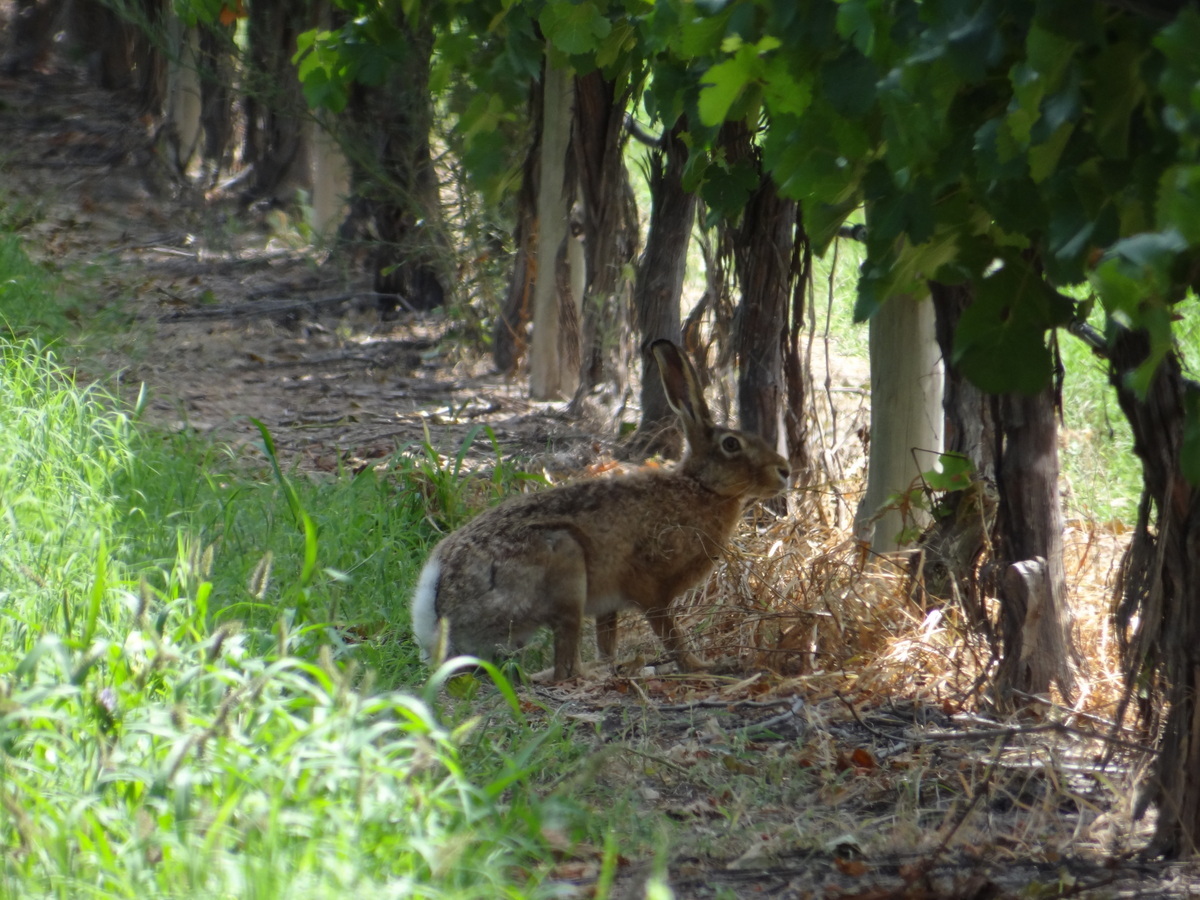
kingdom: Animalia
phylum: Chordata
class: Mammalia
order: Lagomorpha
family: Leporidae
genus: Lepus
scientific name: Lepus europaeus
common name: European hare
